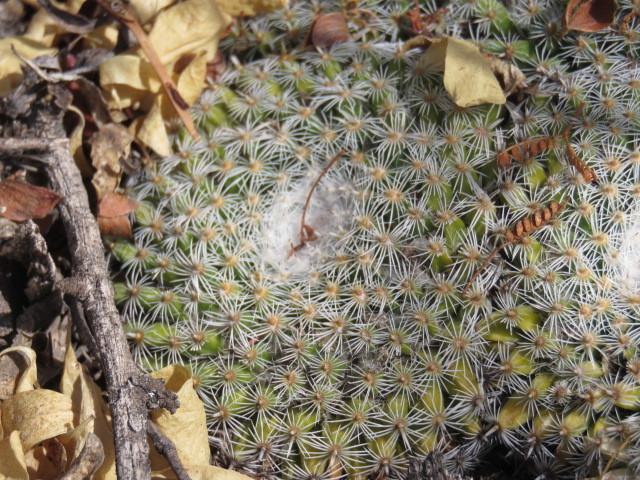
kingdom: Plantae
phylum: Tracheophyta
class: Magnoliopsida
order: Caryophyllales
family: Cactaceae
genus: Mammillaria
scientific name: Mammillaria perbella
